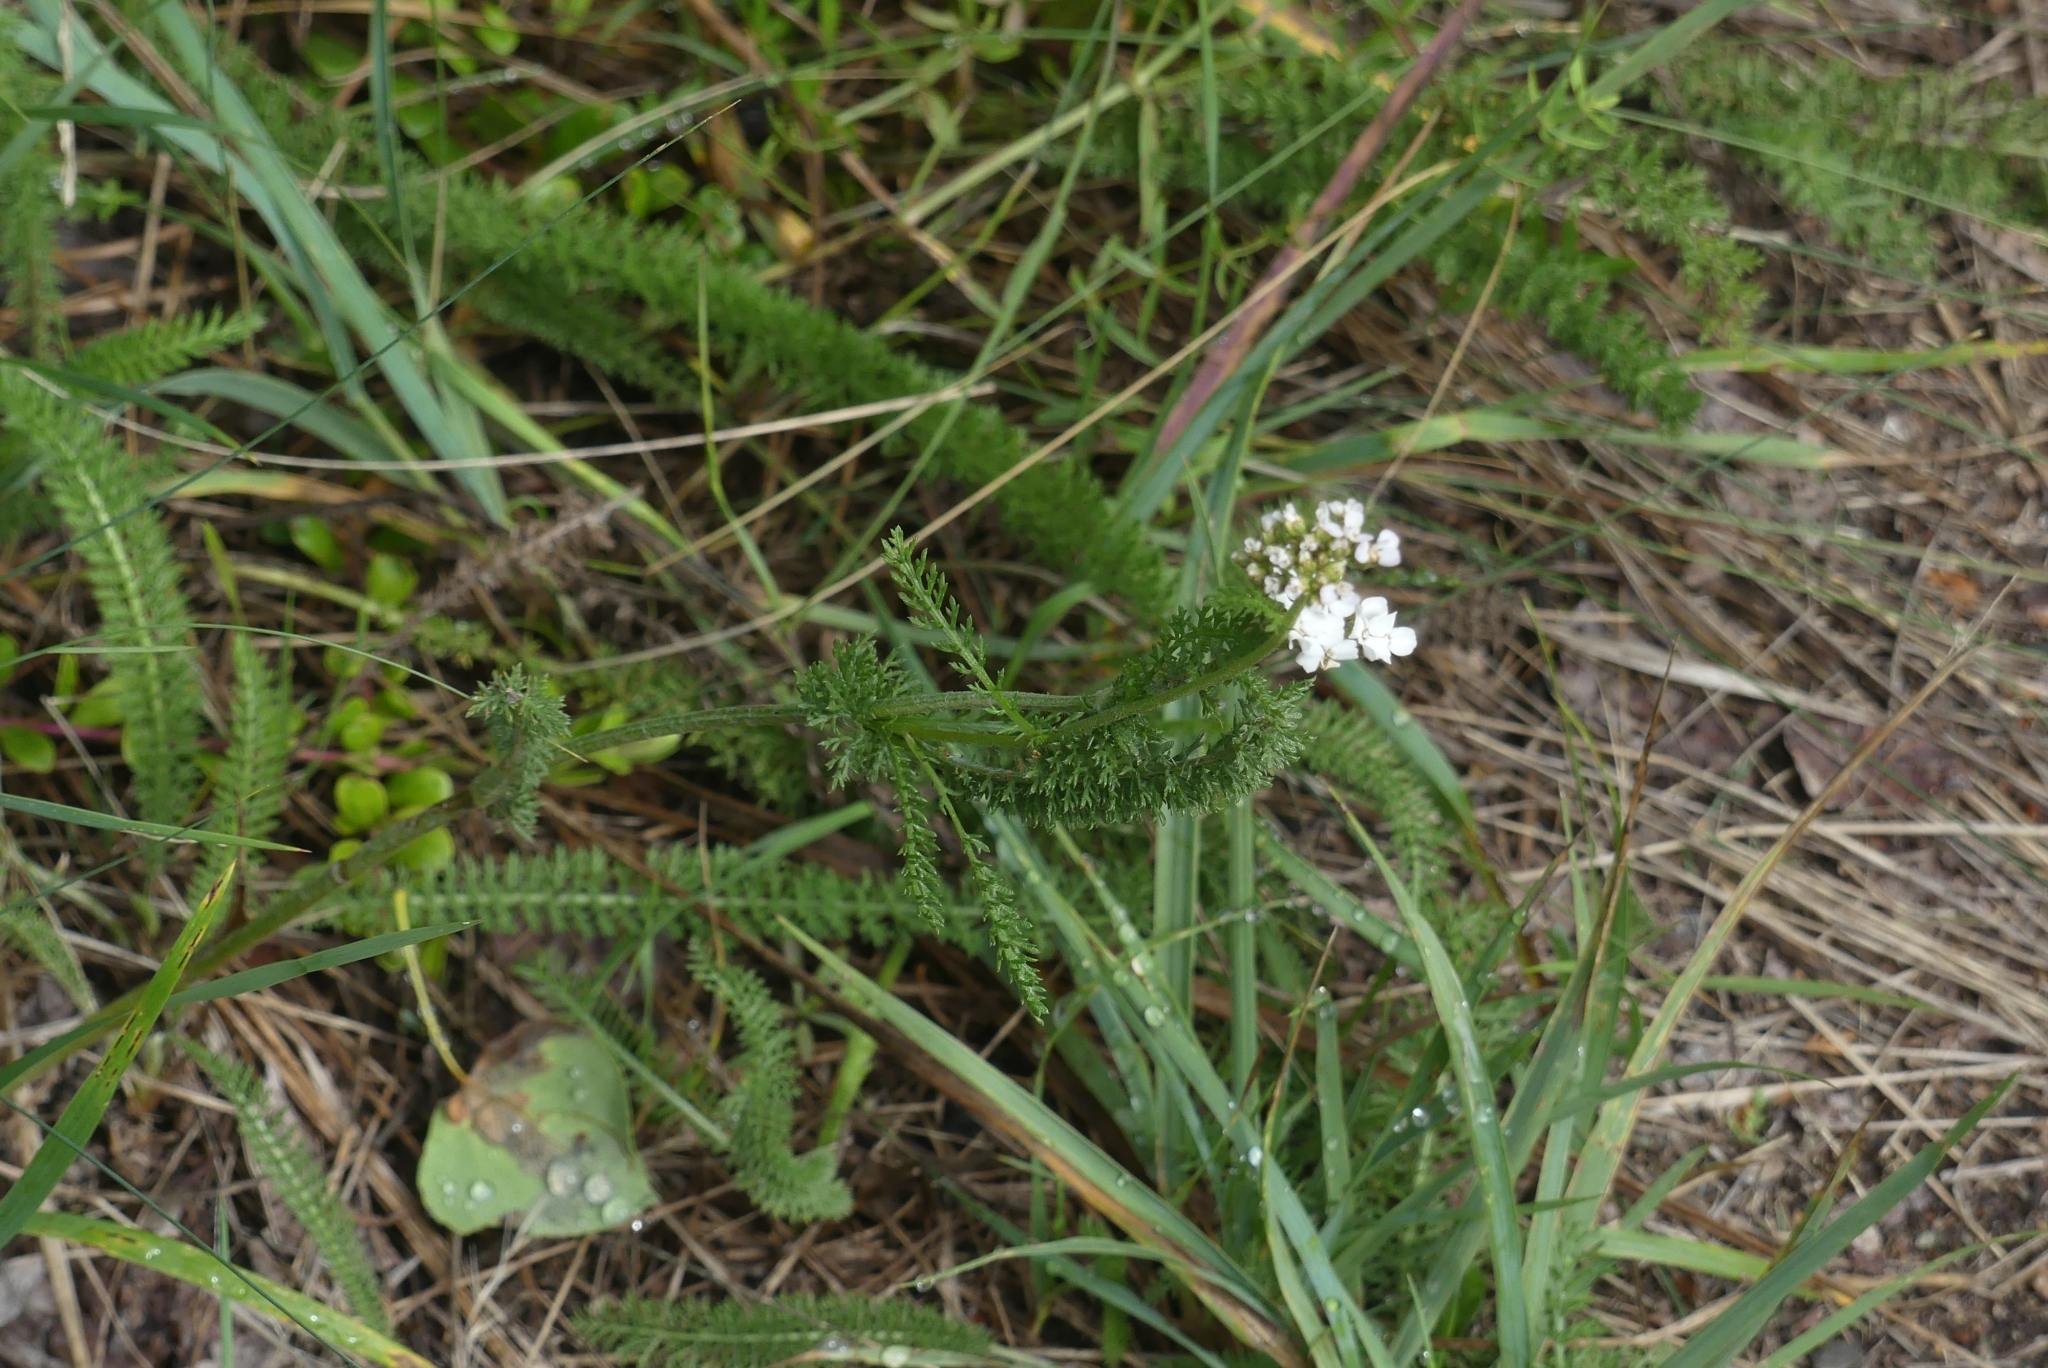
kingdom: Plantae
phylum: Tracheophyta
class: Magnoliopsida
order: Asterales
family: Asteraceae
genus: Achillea
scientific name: Achillea millefolium
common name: Yarrow
